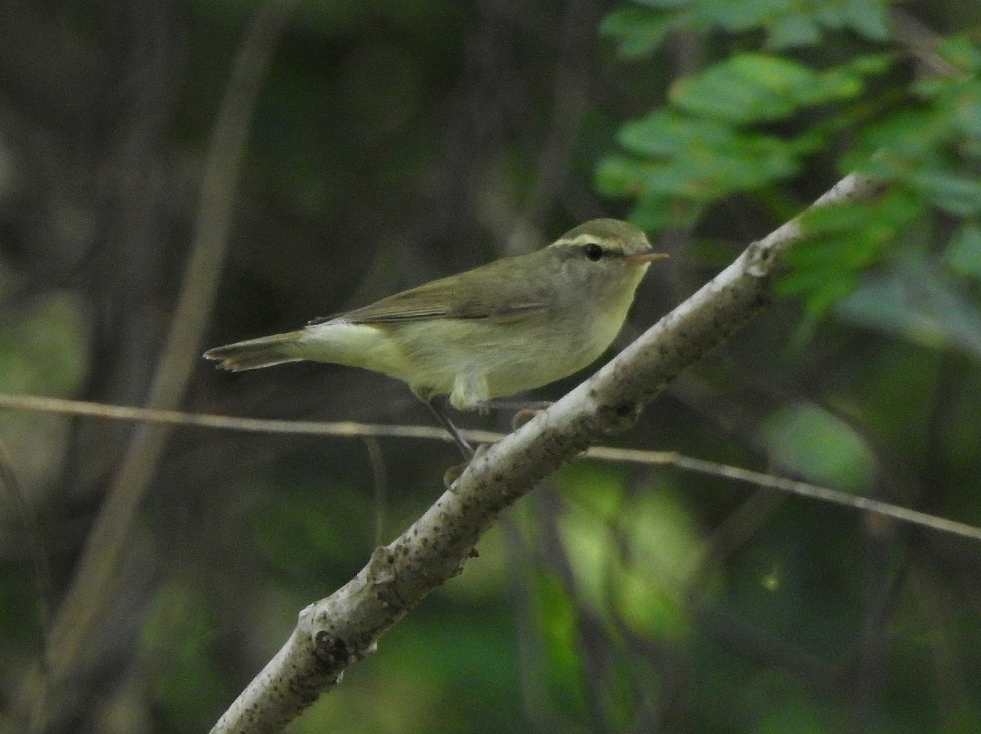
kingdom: Animalia
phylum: Chordata
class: Aves
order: Passeriformes
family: Phylloscopidae
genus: Phylloscopus
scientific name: Phylloscopus trochiloides
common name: Greenish warbler
